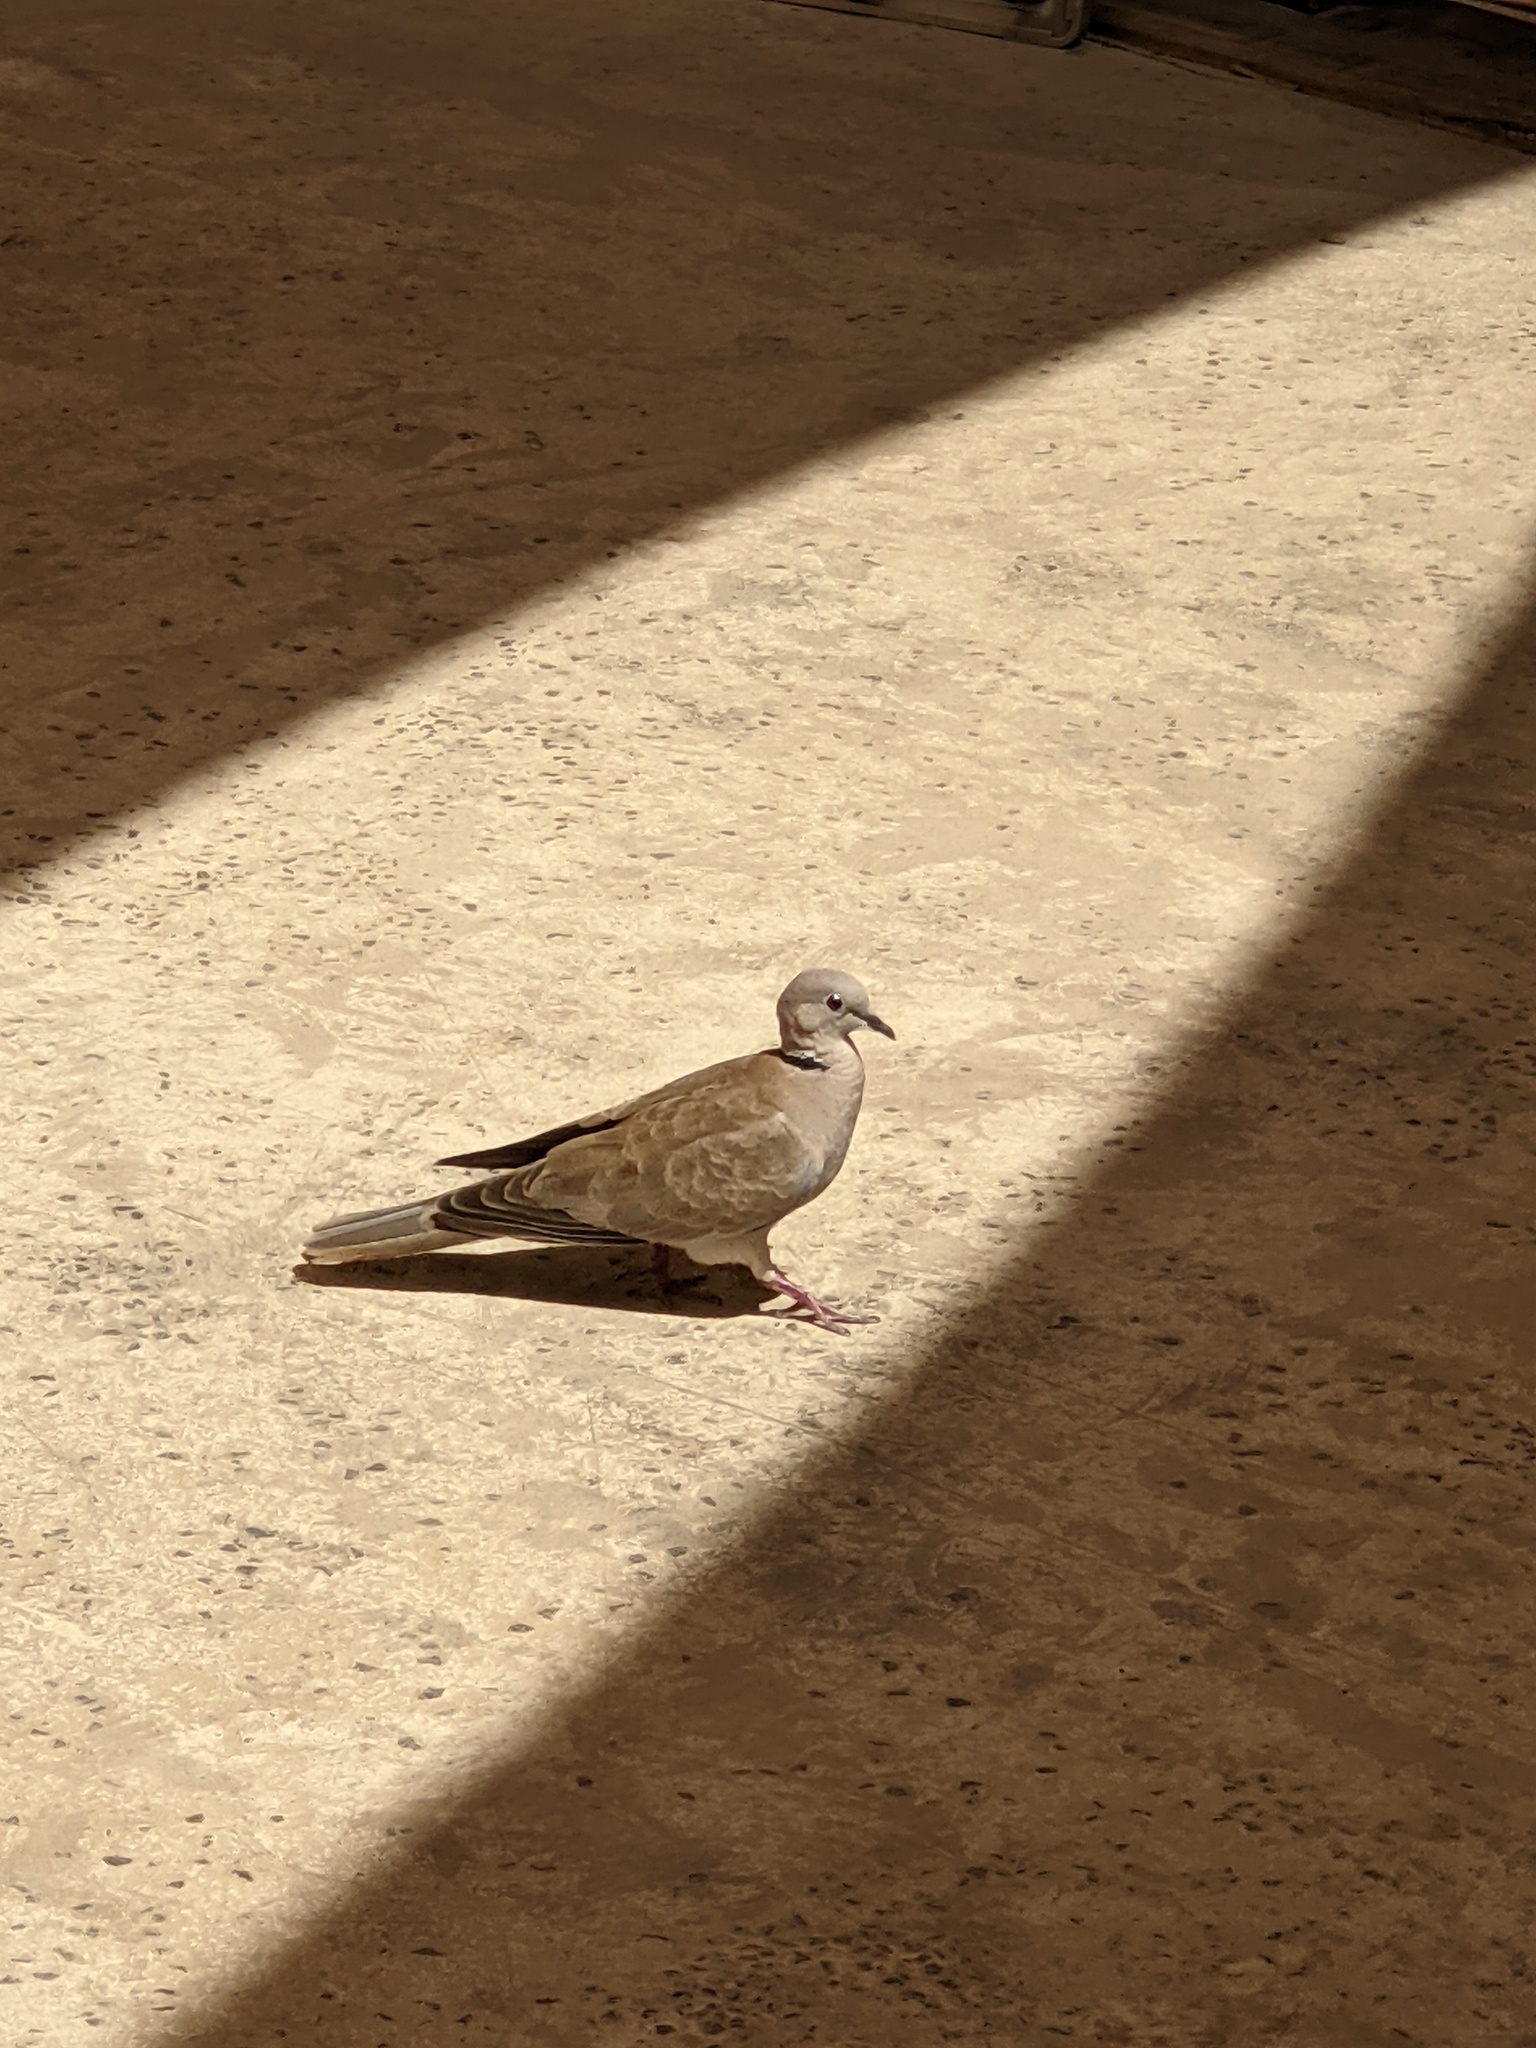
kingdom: Animalia
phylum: Chordata
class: Aves
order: Columbiformes
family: Columbidae
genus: Streptopelia
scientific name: Streptopelia decaocto
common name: Eurasian collared dove
